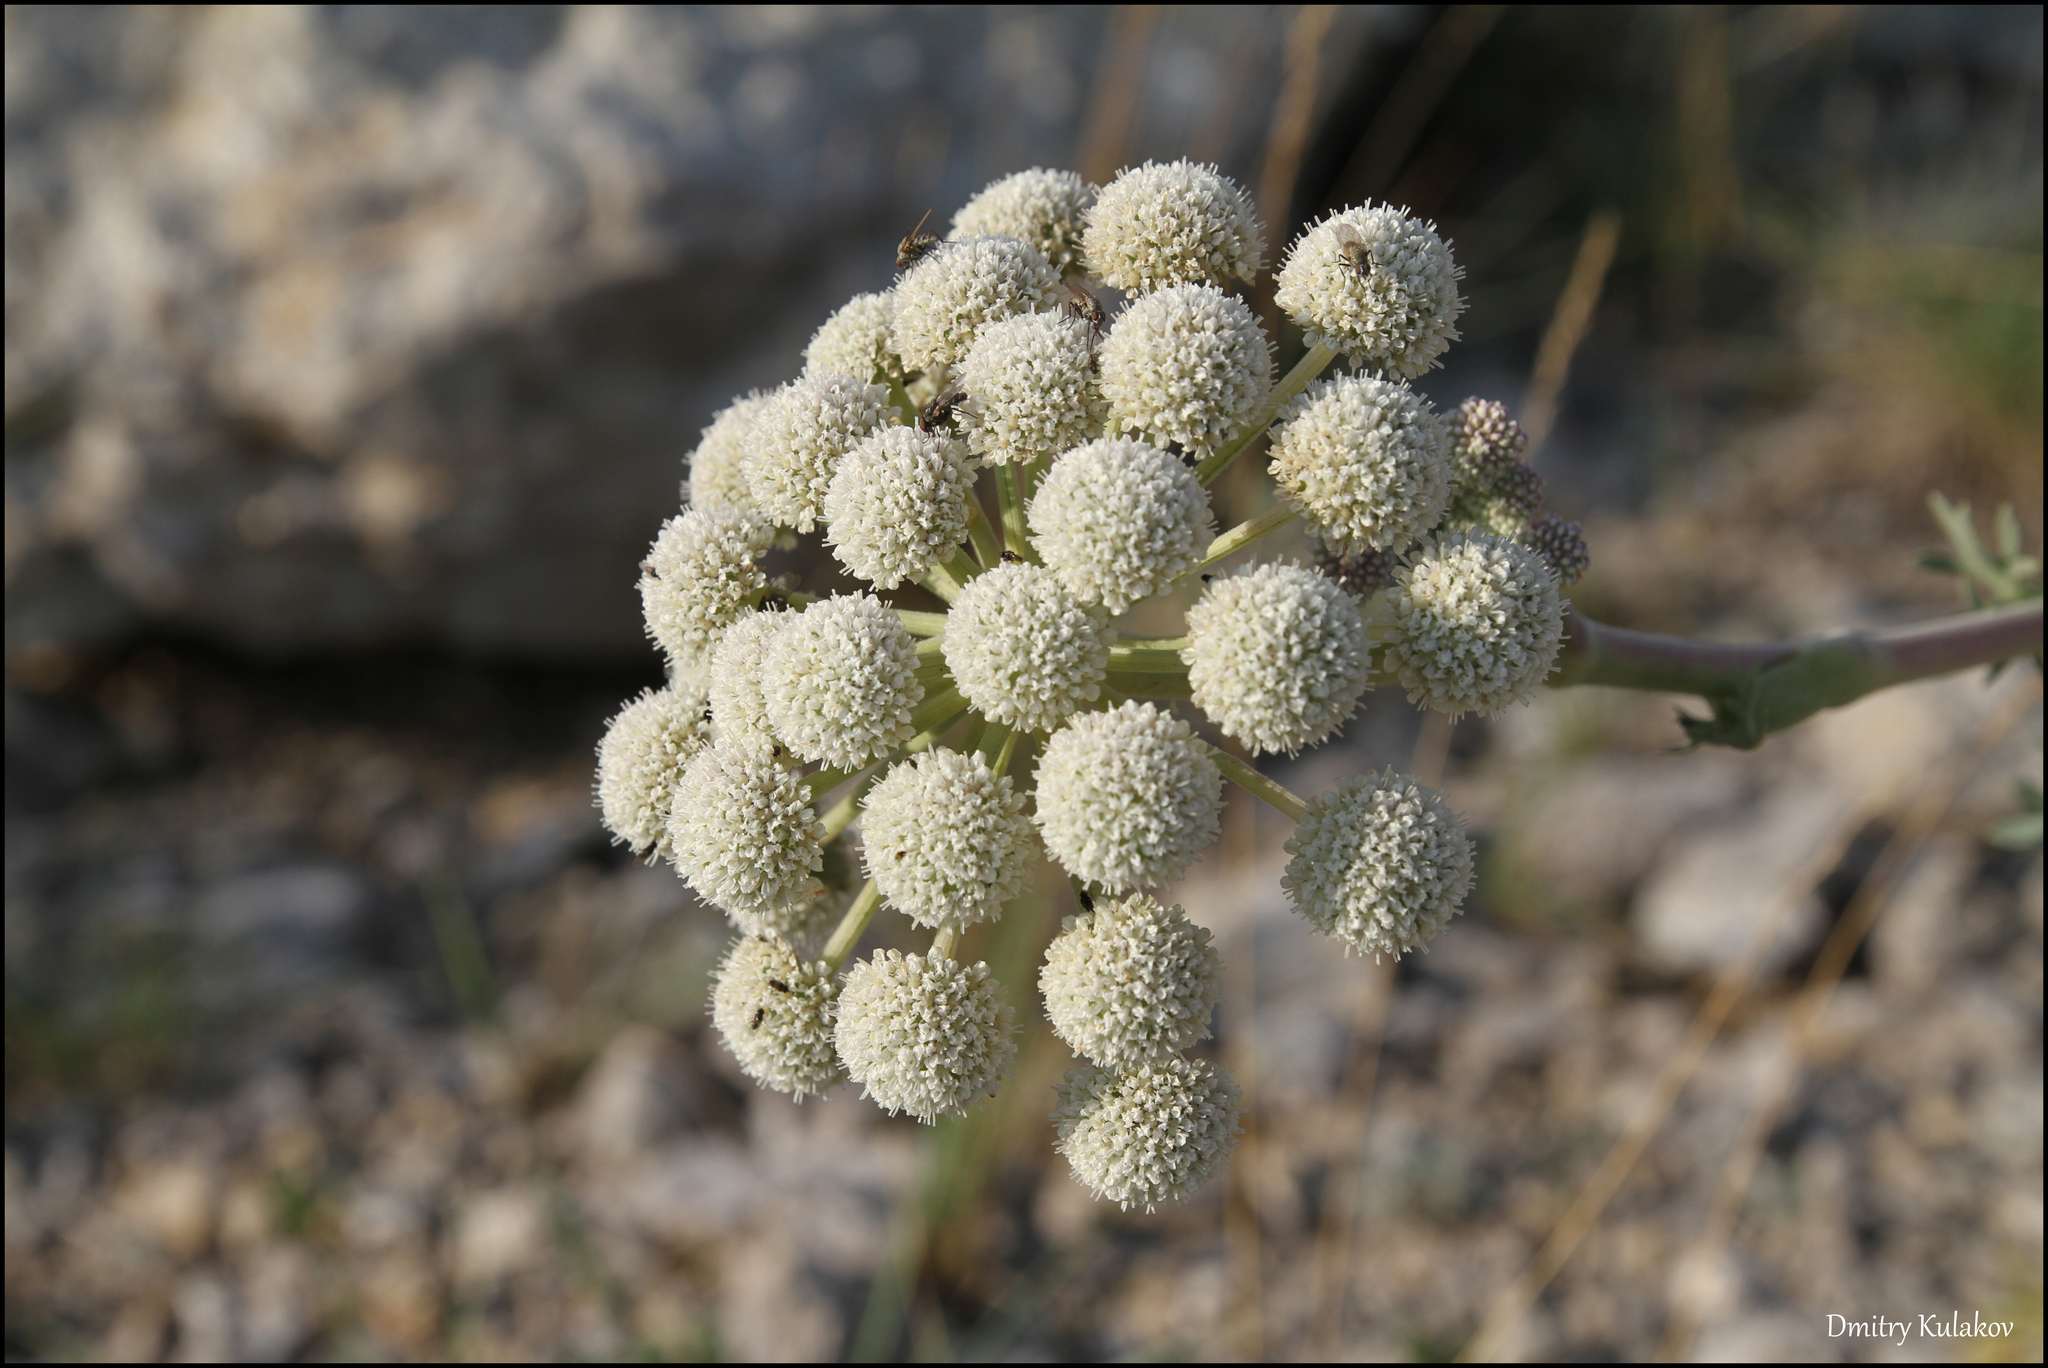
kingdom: Plantae
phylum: Tracheophyta
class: Magnoliopsida
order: Apiales
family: Apiaceae
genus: Seseli
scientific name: Seseli gummiferum
